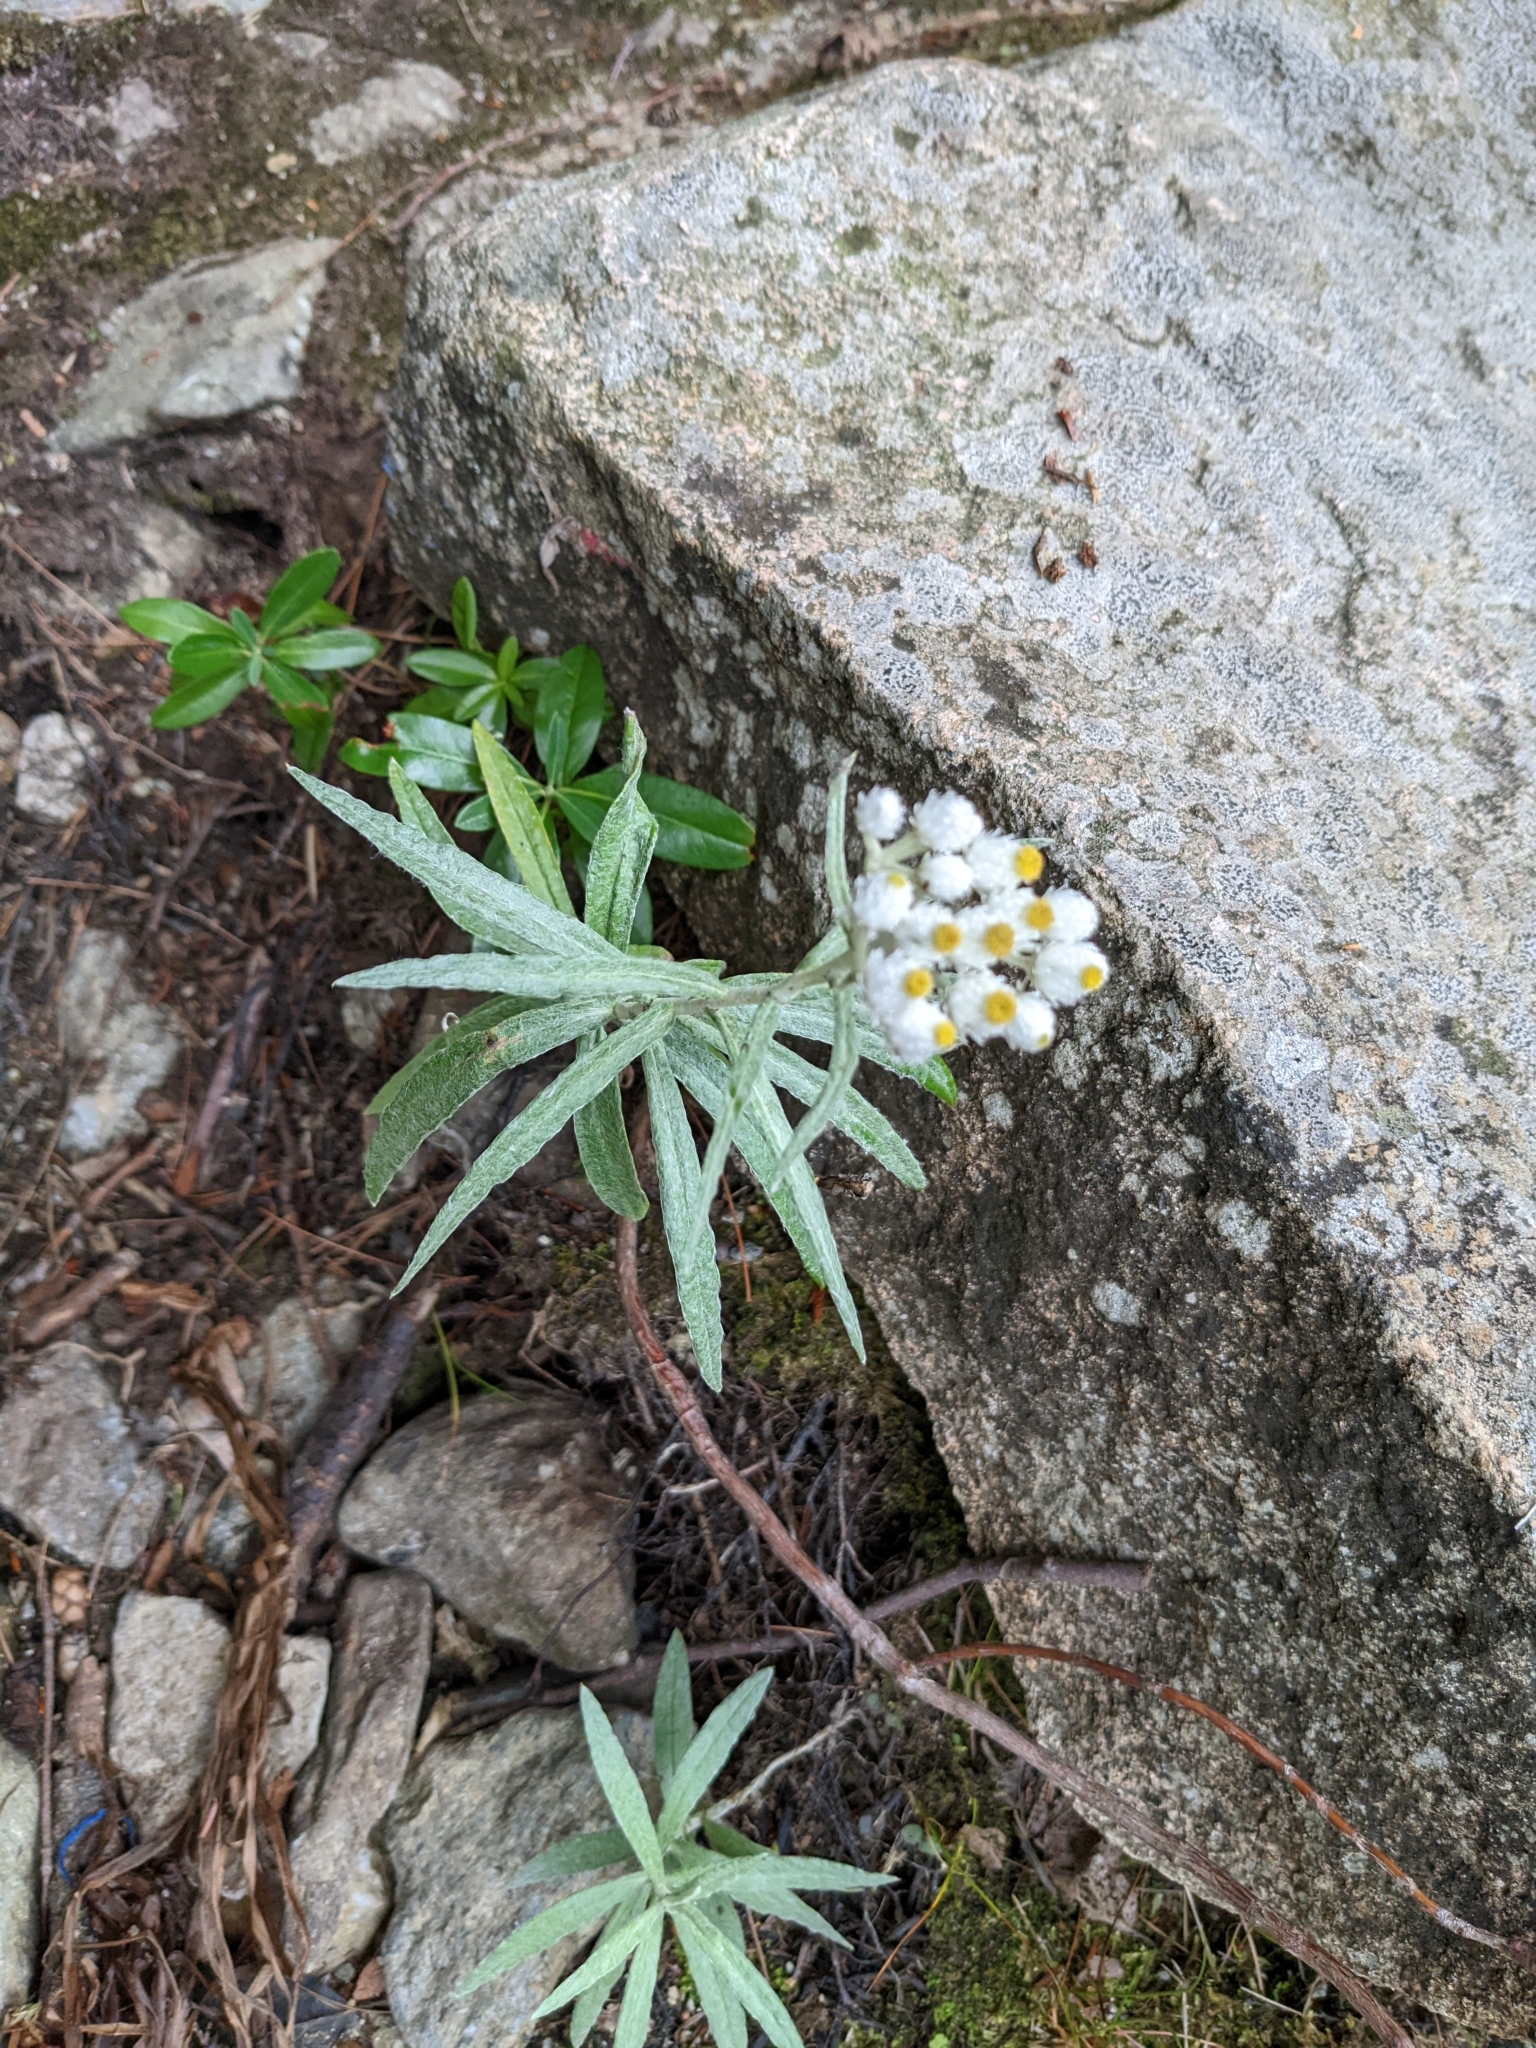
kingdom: Plantae
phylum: Tracheophyta
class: Magnoliopsida
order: Asterales
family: Asteraceae
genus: Anaphalis
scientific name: Anaphalis margaritacea
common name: Pearly everlasting
